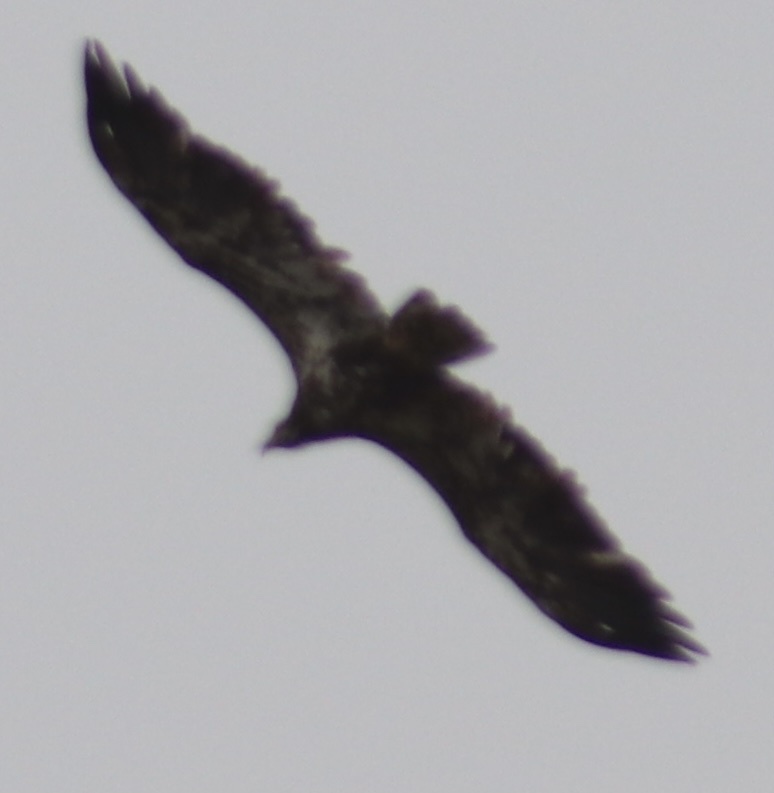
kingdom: Animalia
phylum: Chordata
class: Aves
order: Accipitriformes
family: Accipitridae
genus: Haliaeetus
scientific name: Haliaeetus leucocephalus
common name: Bald eagle
